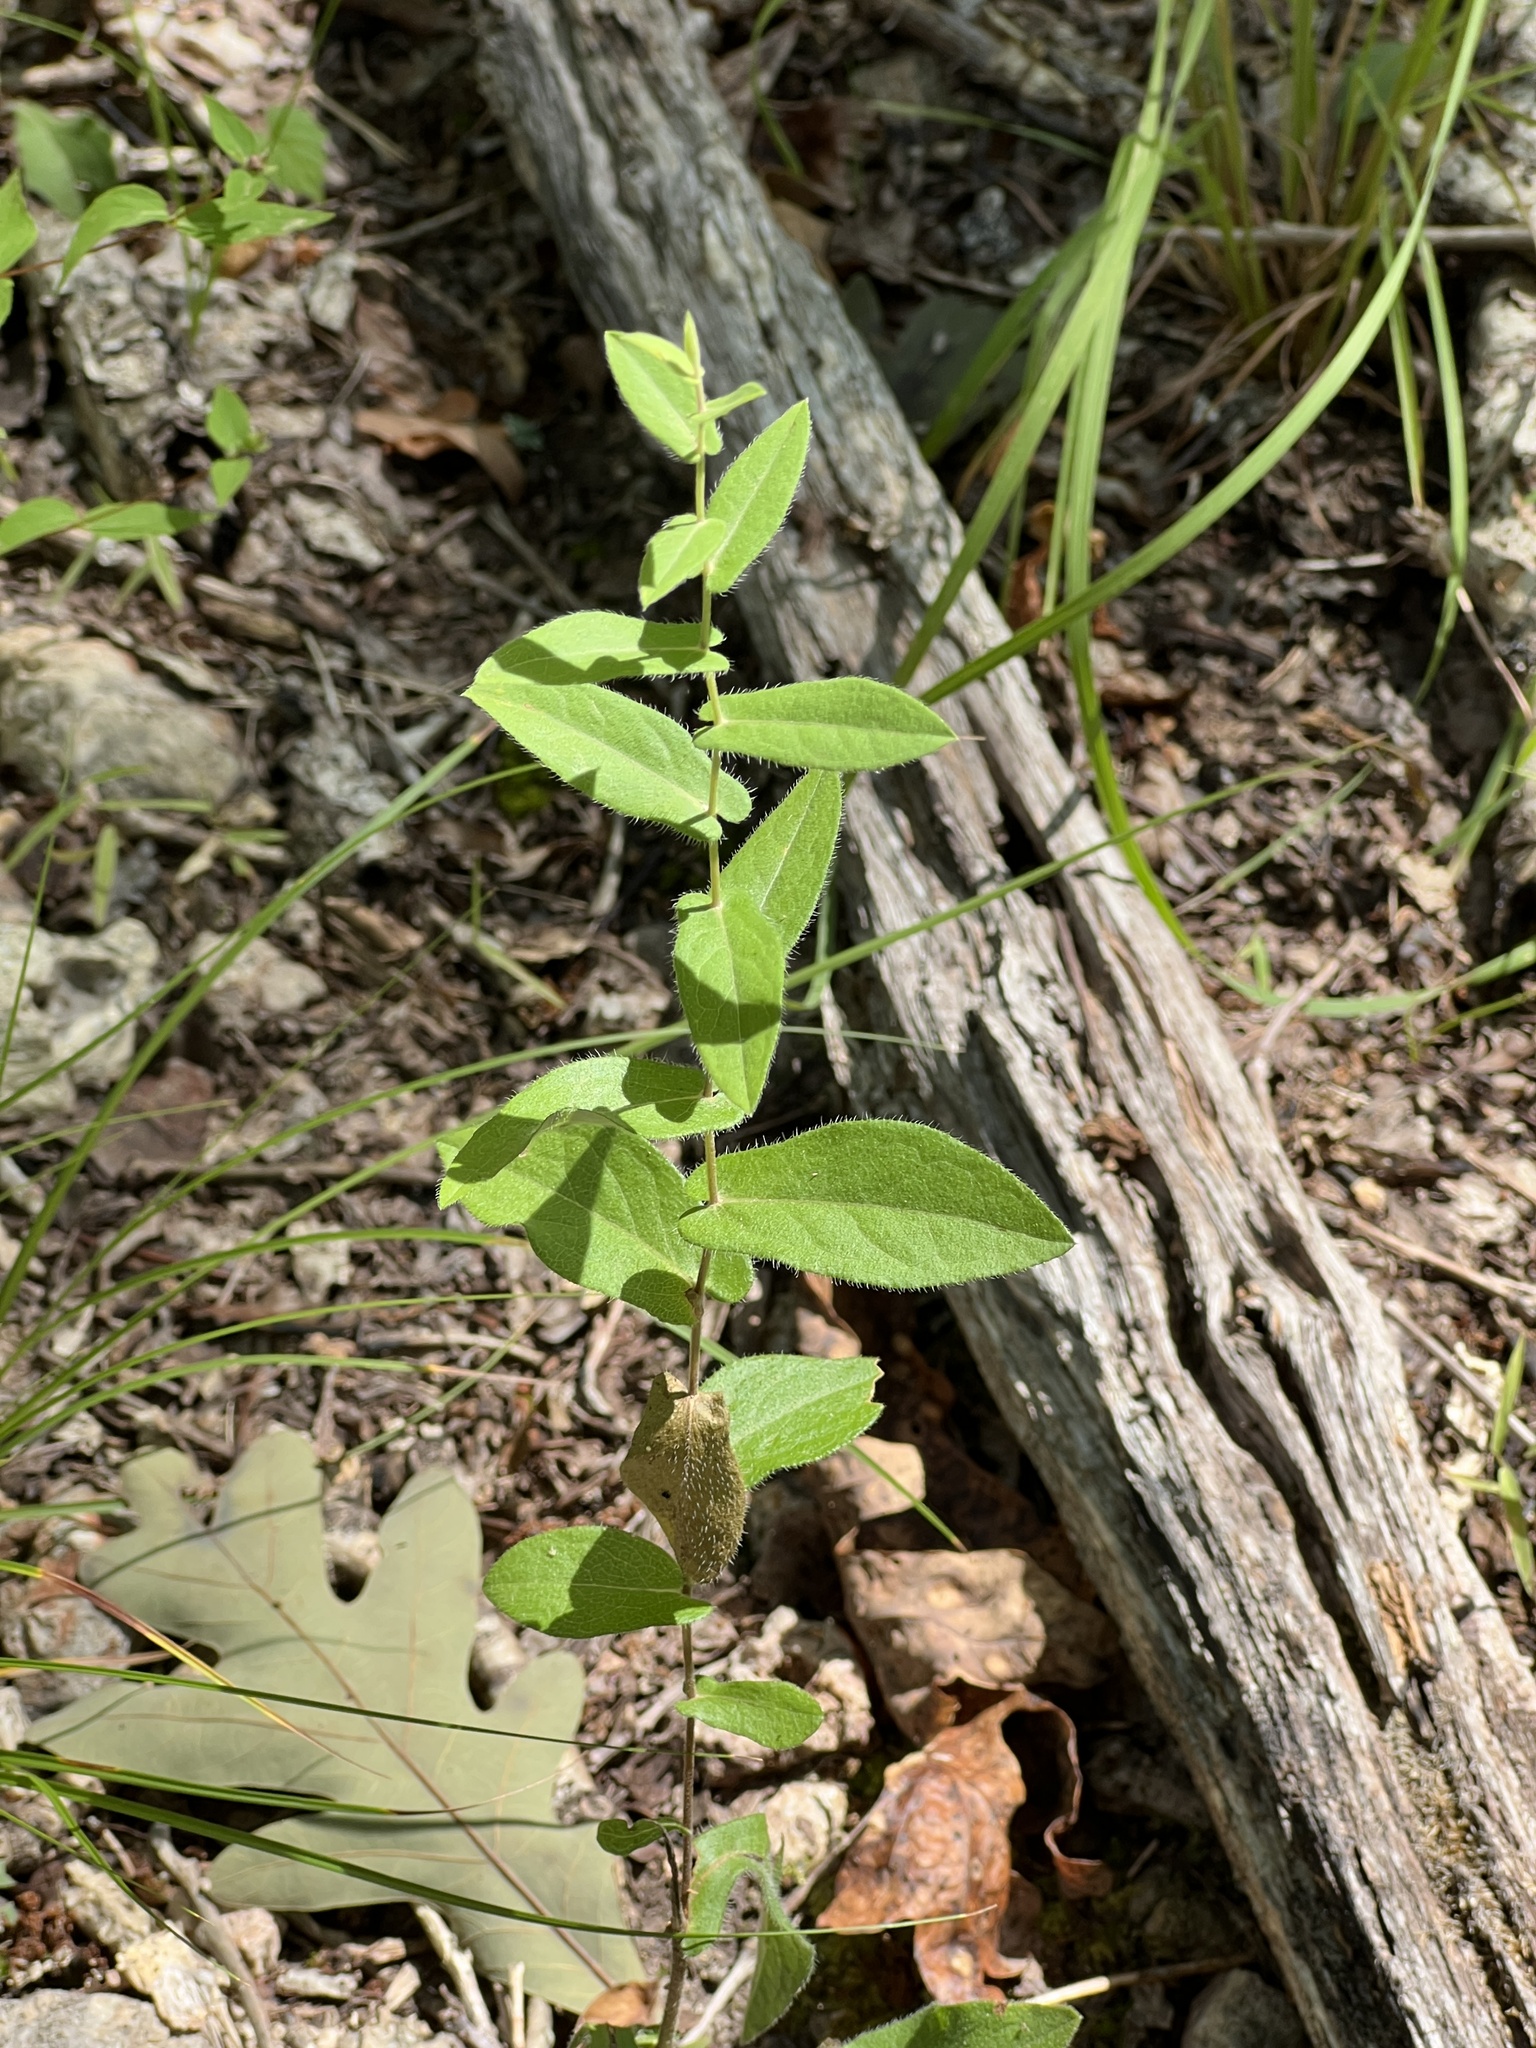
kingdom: Plantae
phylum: Tracheophyta
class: Magnoliopsida
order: Asterales
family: Asteraceae
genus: Symphyotrichum
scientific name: Symphyotrichum patens
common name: Late purple aster
